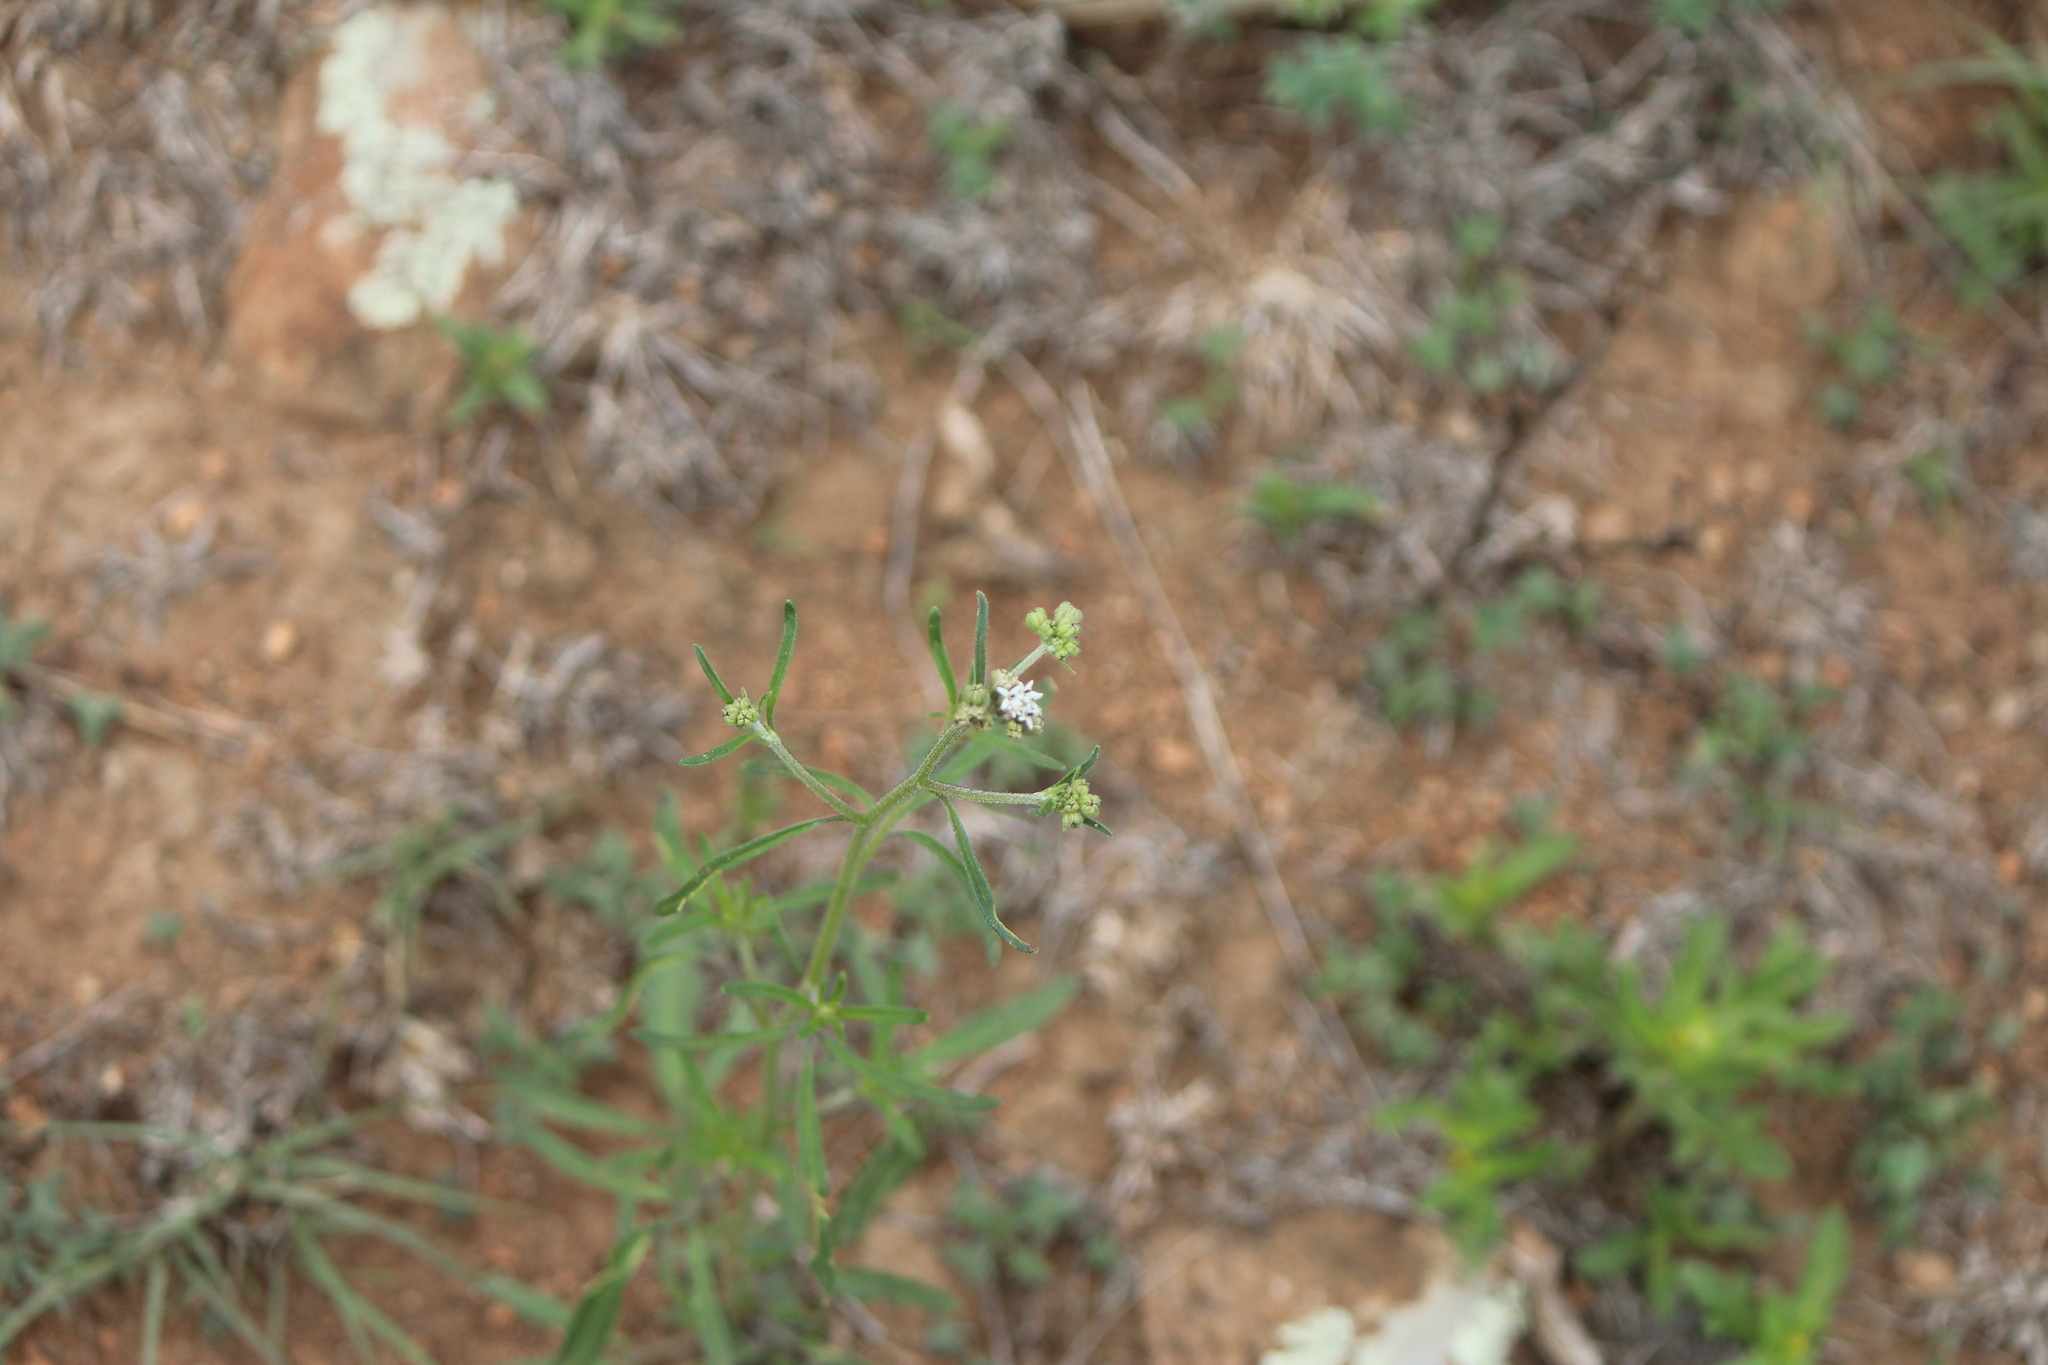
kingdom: Plantae
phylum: Tracheophyta
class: Magnoliopsida
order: Asterales
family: Asteraceae
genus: Florestina
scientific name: Florestina tripteris
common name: Sticky florestina
